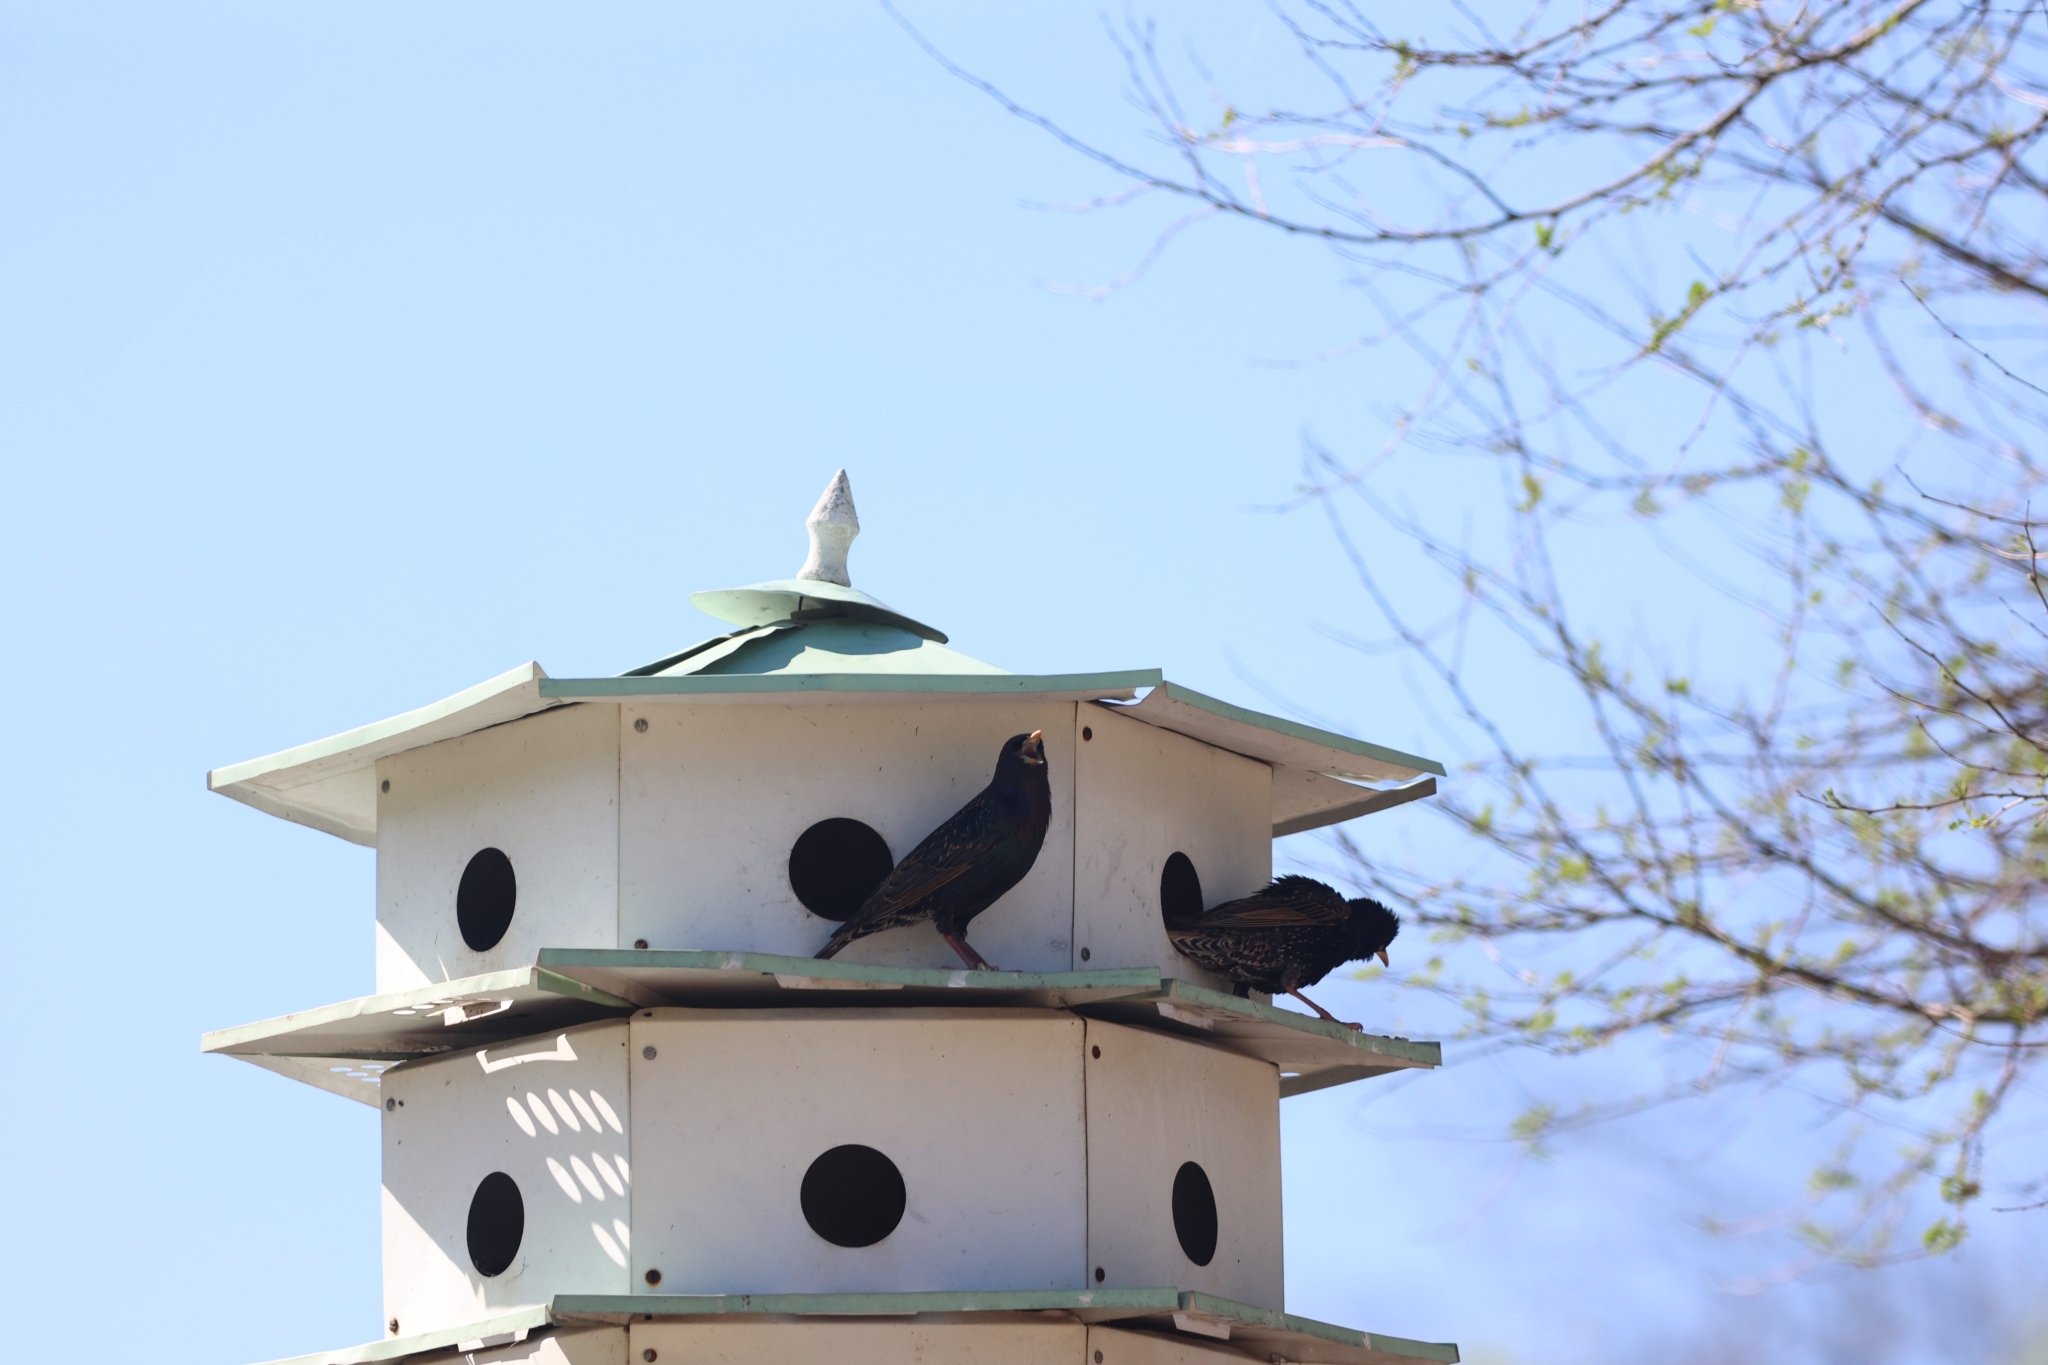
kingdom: Animalia
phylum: Chordata
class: Aves
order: Passeriformes
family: Sturnidae
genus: Sturnus
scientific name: Sturnus vulgaris
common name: Common starling
